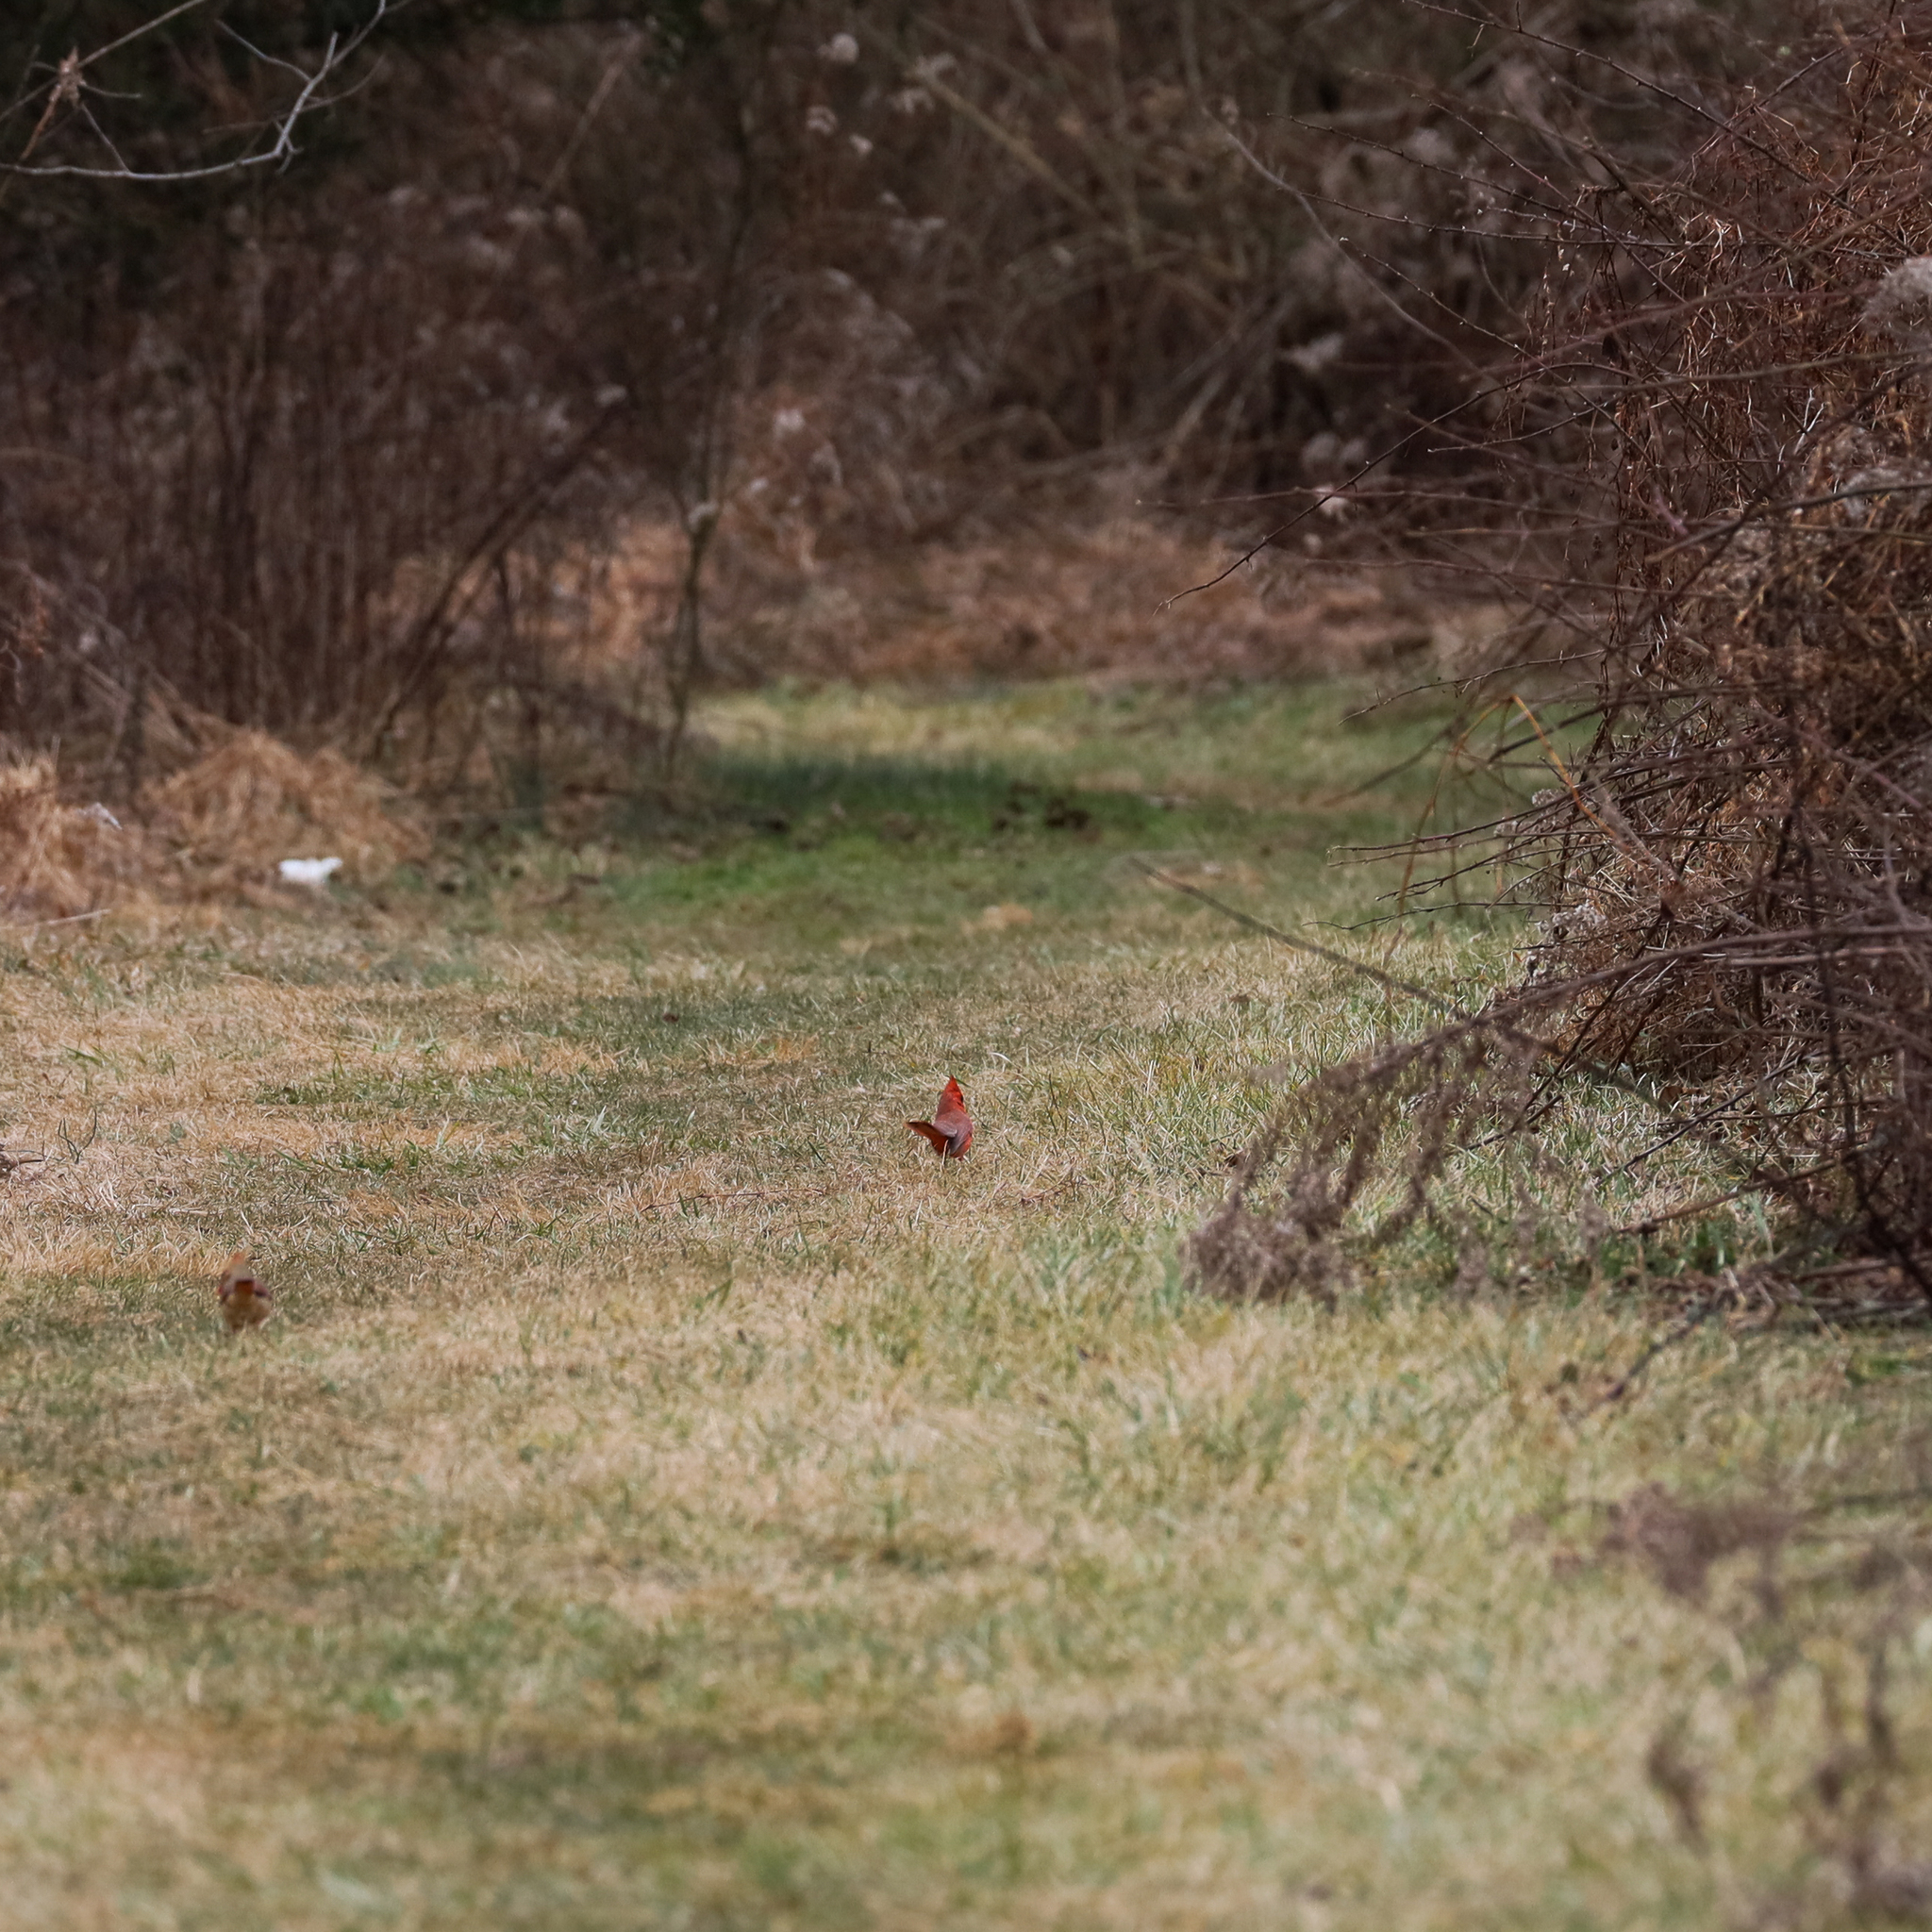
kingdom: Animalia
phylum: Chordata
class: Aves
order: Passeriformes
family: Cardinalidae
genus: Cardinalis
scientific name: Cardinalis cardinalis
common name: Northern cardinal
